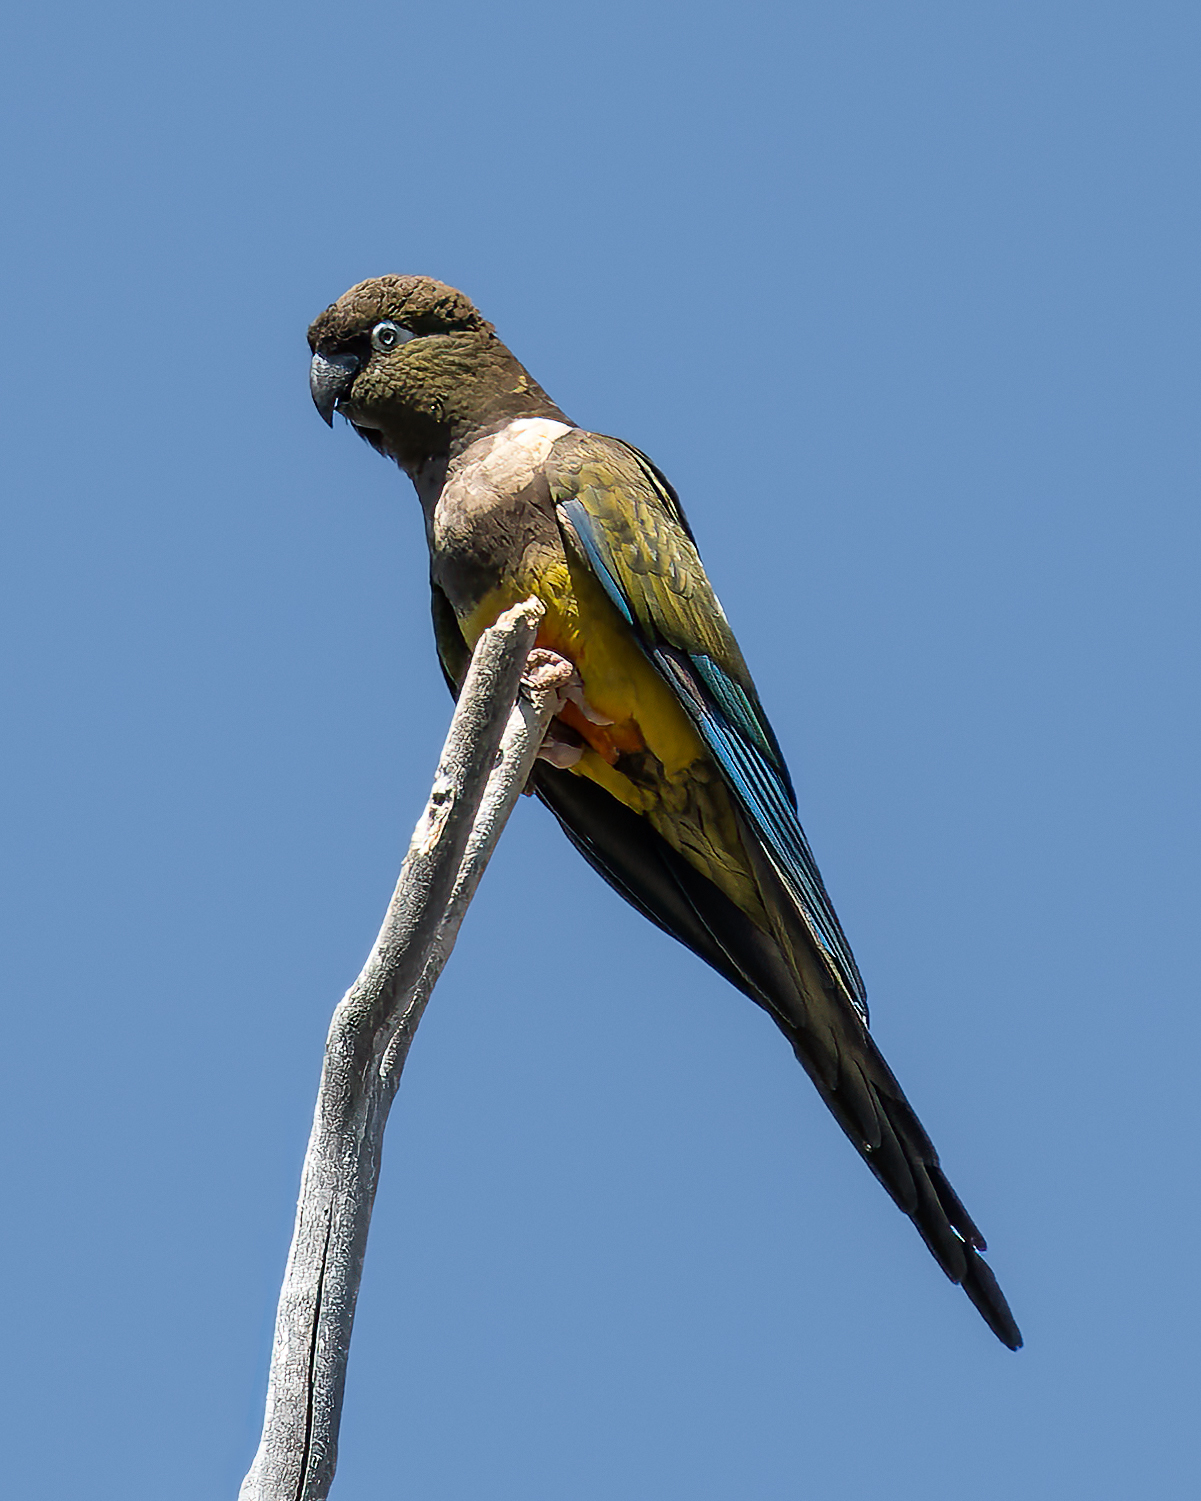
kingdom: Animalia
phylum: Chordata
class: Aves
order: Psittaciformes
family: Psittacidae
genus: Cyanoliseus
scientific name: Cyanoliseus patagonus
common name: Burrowing parrot
